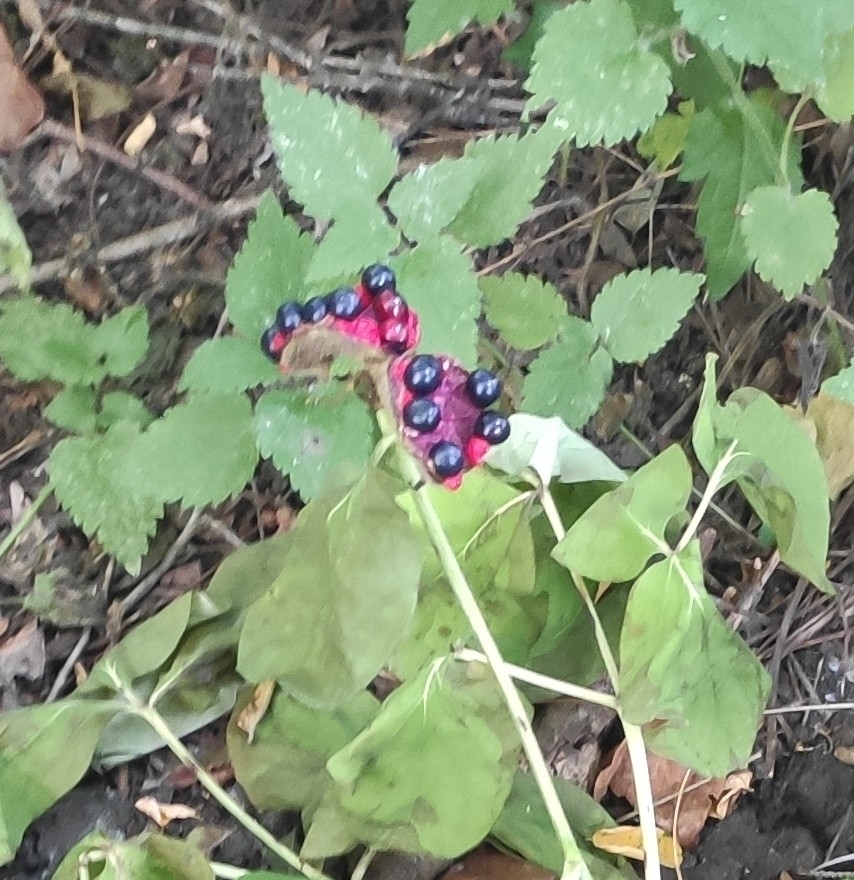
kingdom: Plantae
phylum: Tracheophyta
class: Magnoliopsida
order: Saxifragales
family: Paeoniaceae
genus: Paeonia
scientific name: Paeonia caucasica
